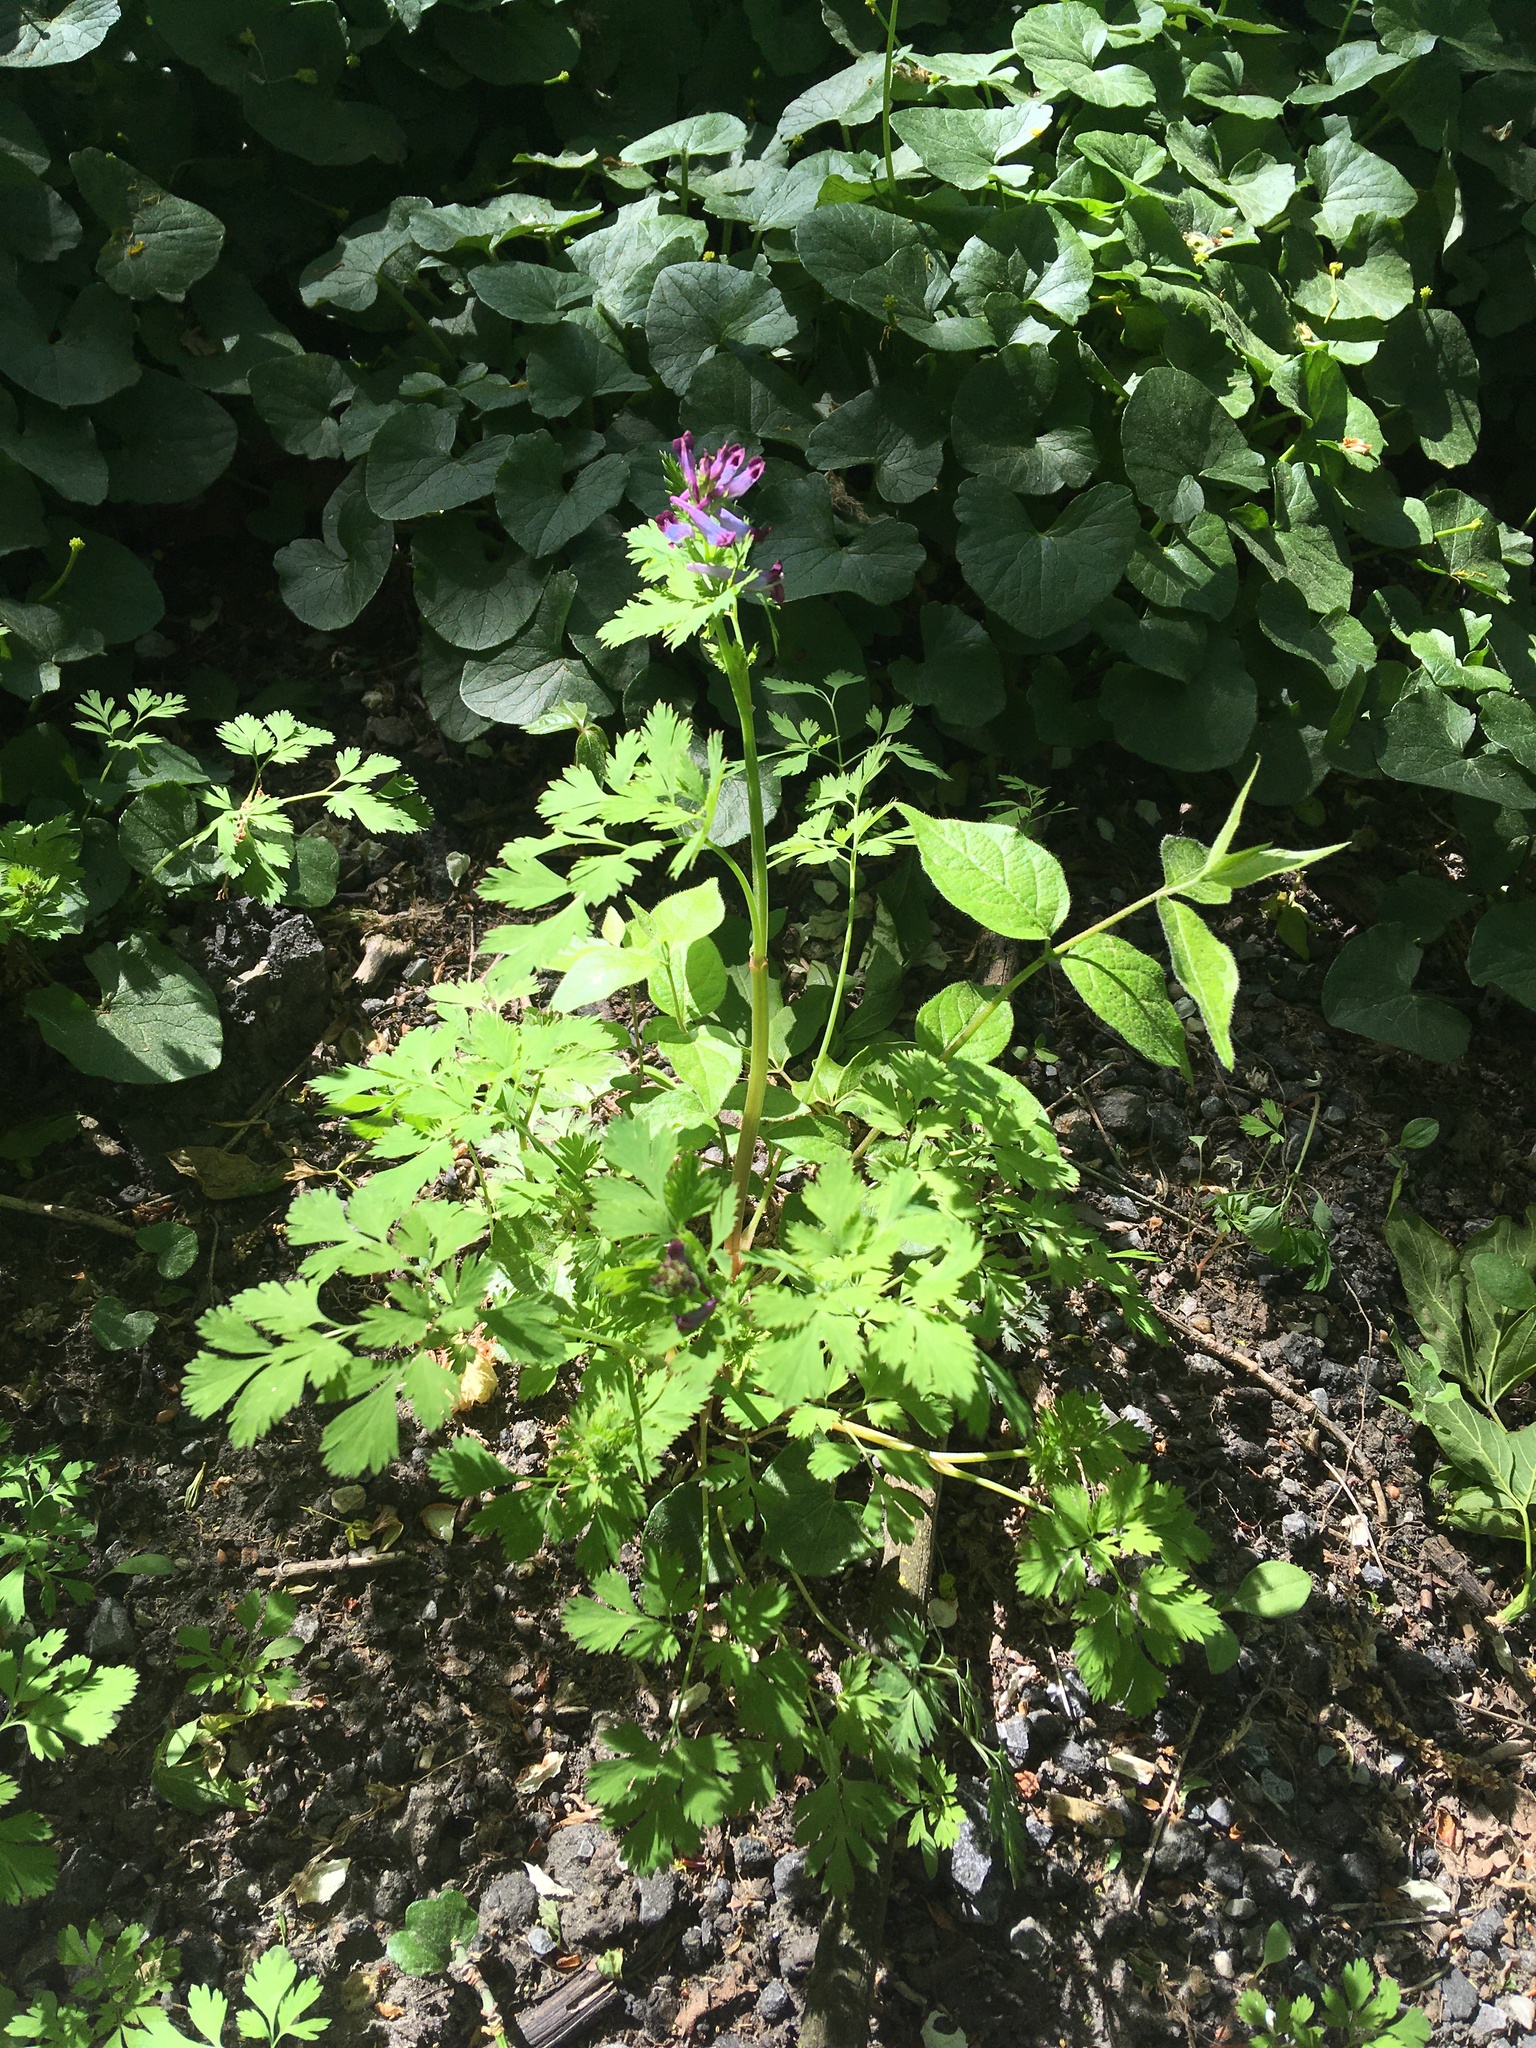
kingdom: Plantae
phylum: Tracheophyta
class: Magnoliopsida
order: Ranunculales
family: Papaveraceae
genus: Corydalis
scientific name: Corydalis incisa
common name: Incised fumewort
